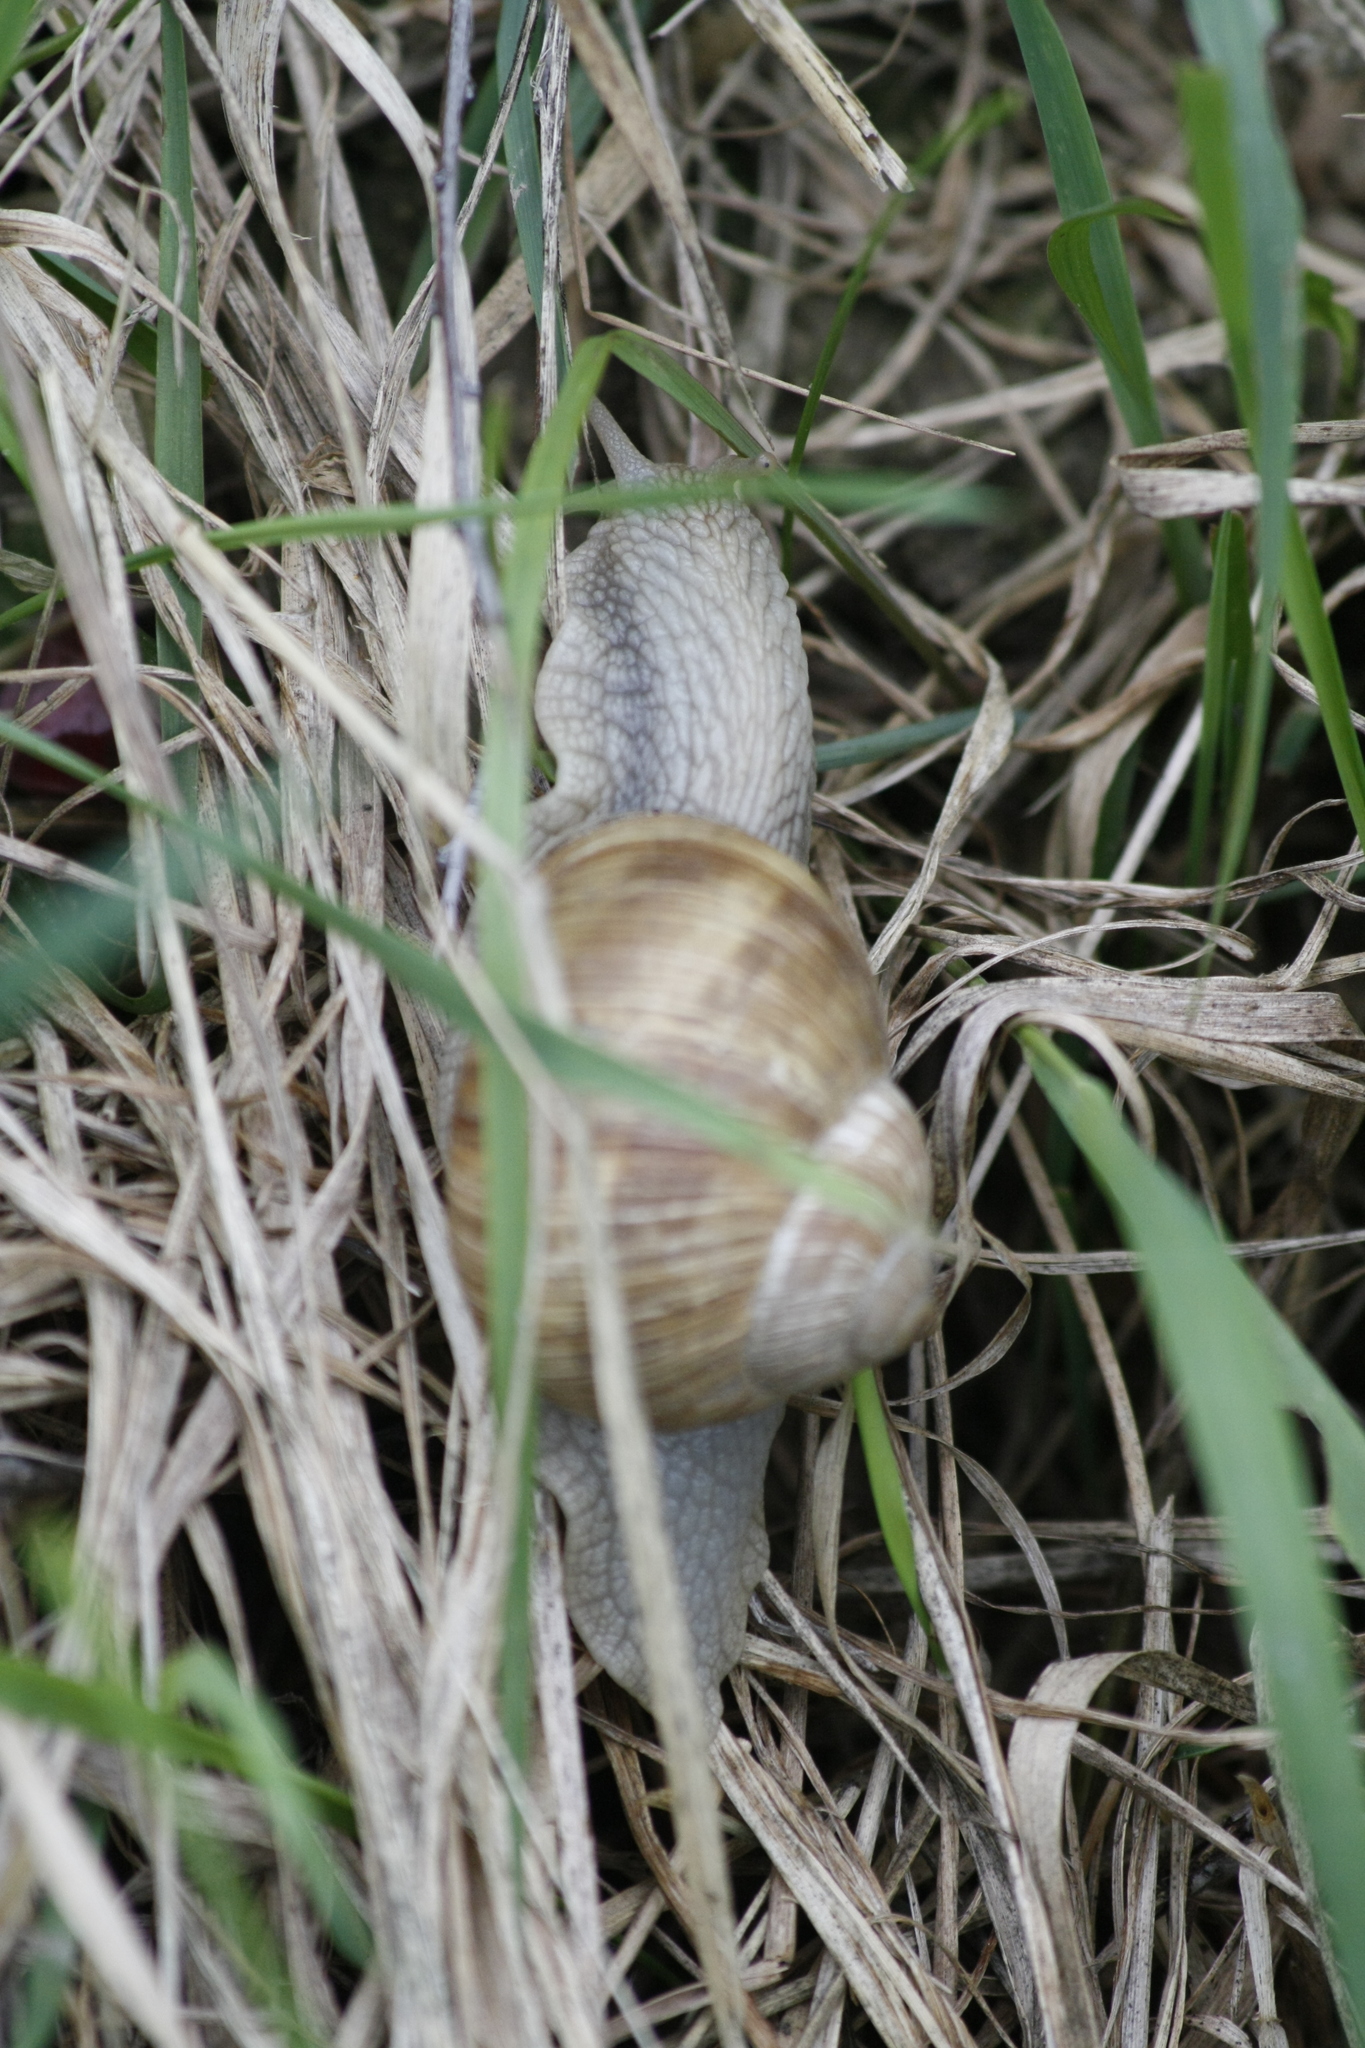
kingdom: Animalia
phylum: Mollusca
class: Gastropoda
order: Stylommatophora
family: Helicidae
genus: Helix
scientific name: Helix pomatia
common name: Roman snail
